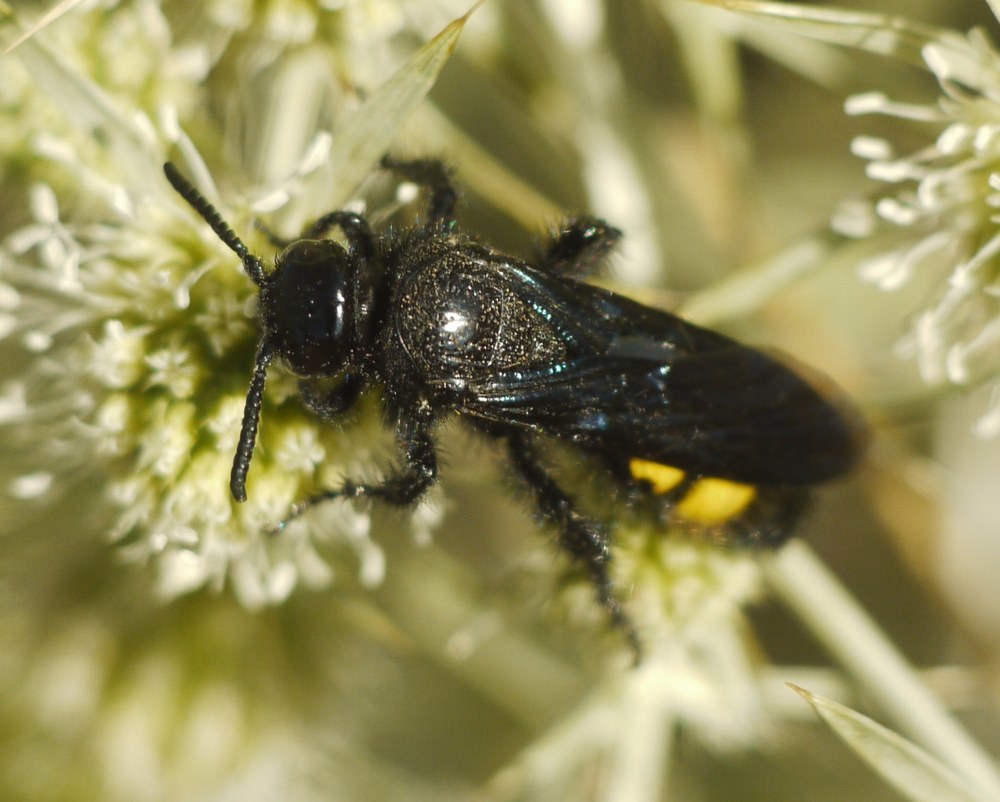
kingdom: Animalia
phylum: Arthropoda
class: Insecta
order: Hymenoptera
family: Scoliidae
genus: Scolia
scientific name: Scolia hirta
